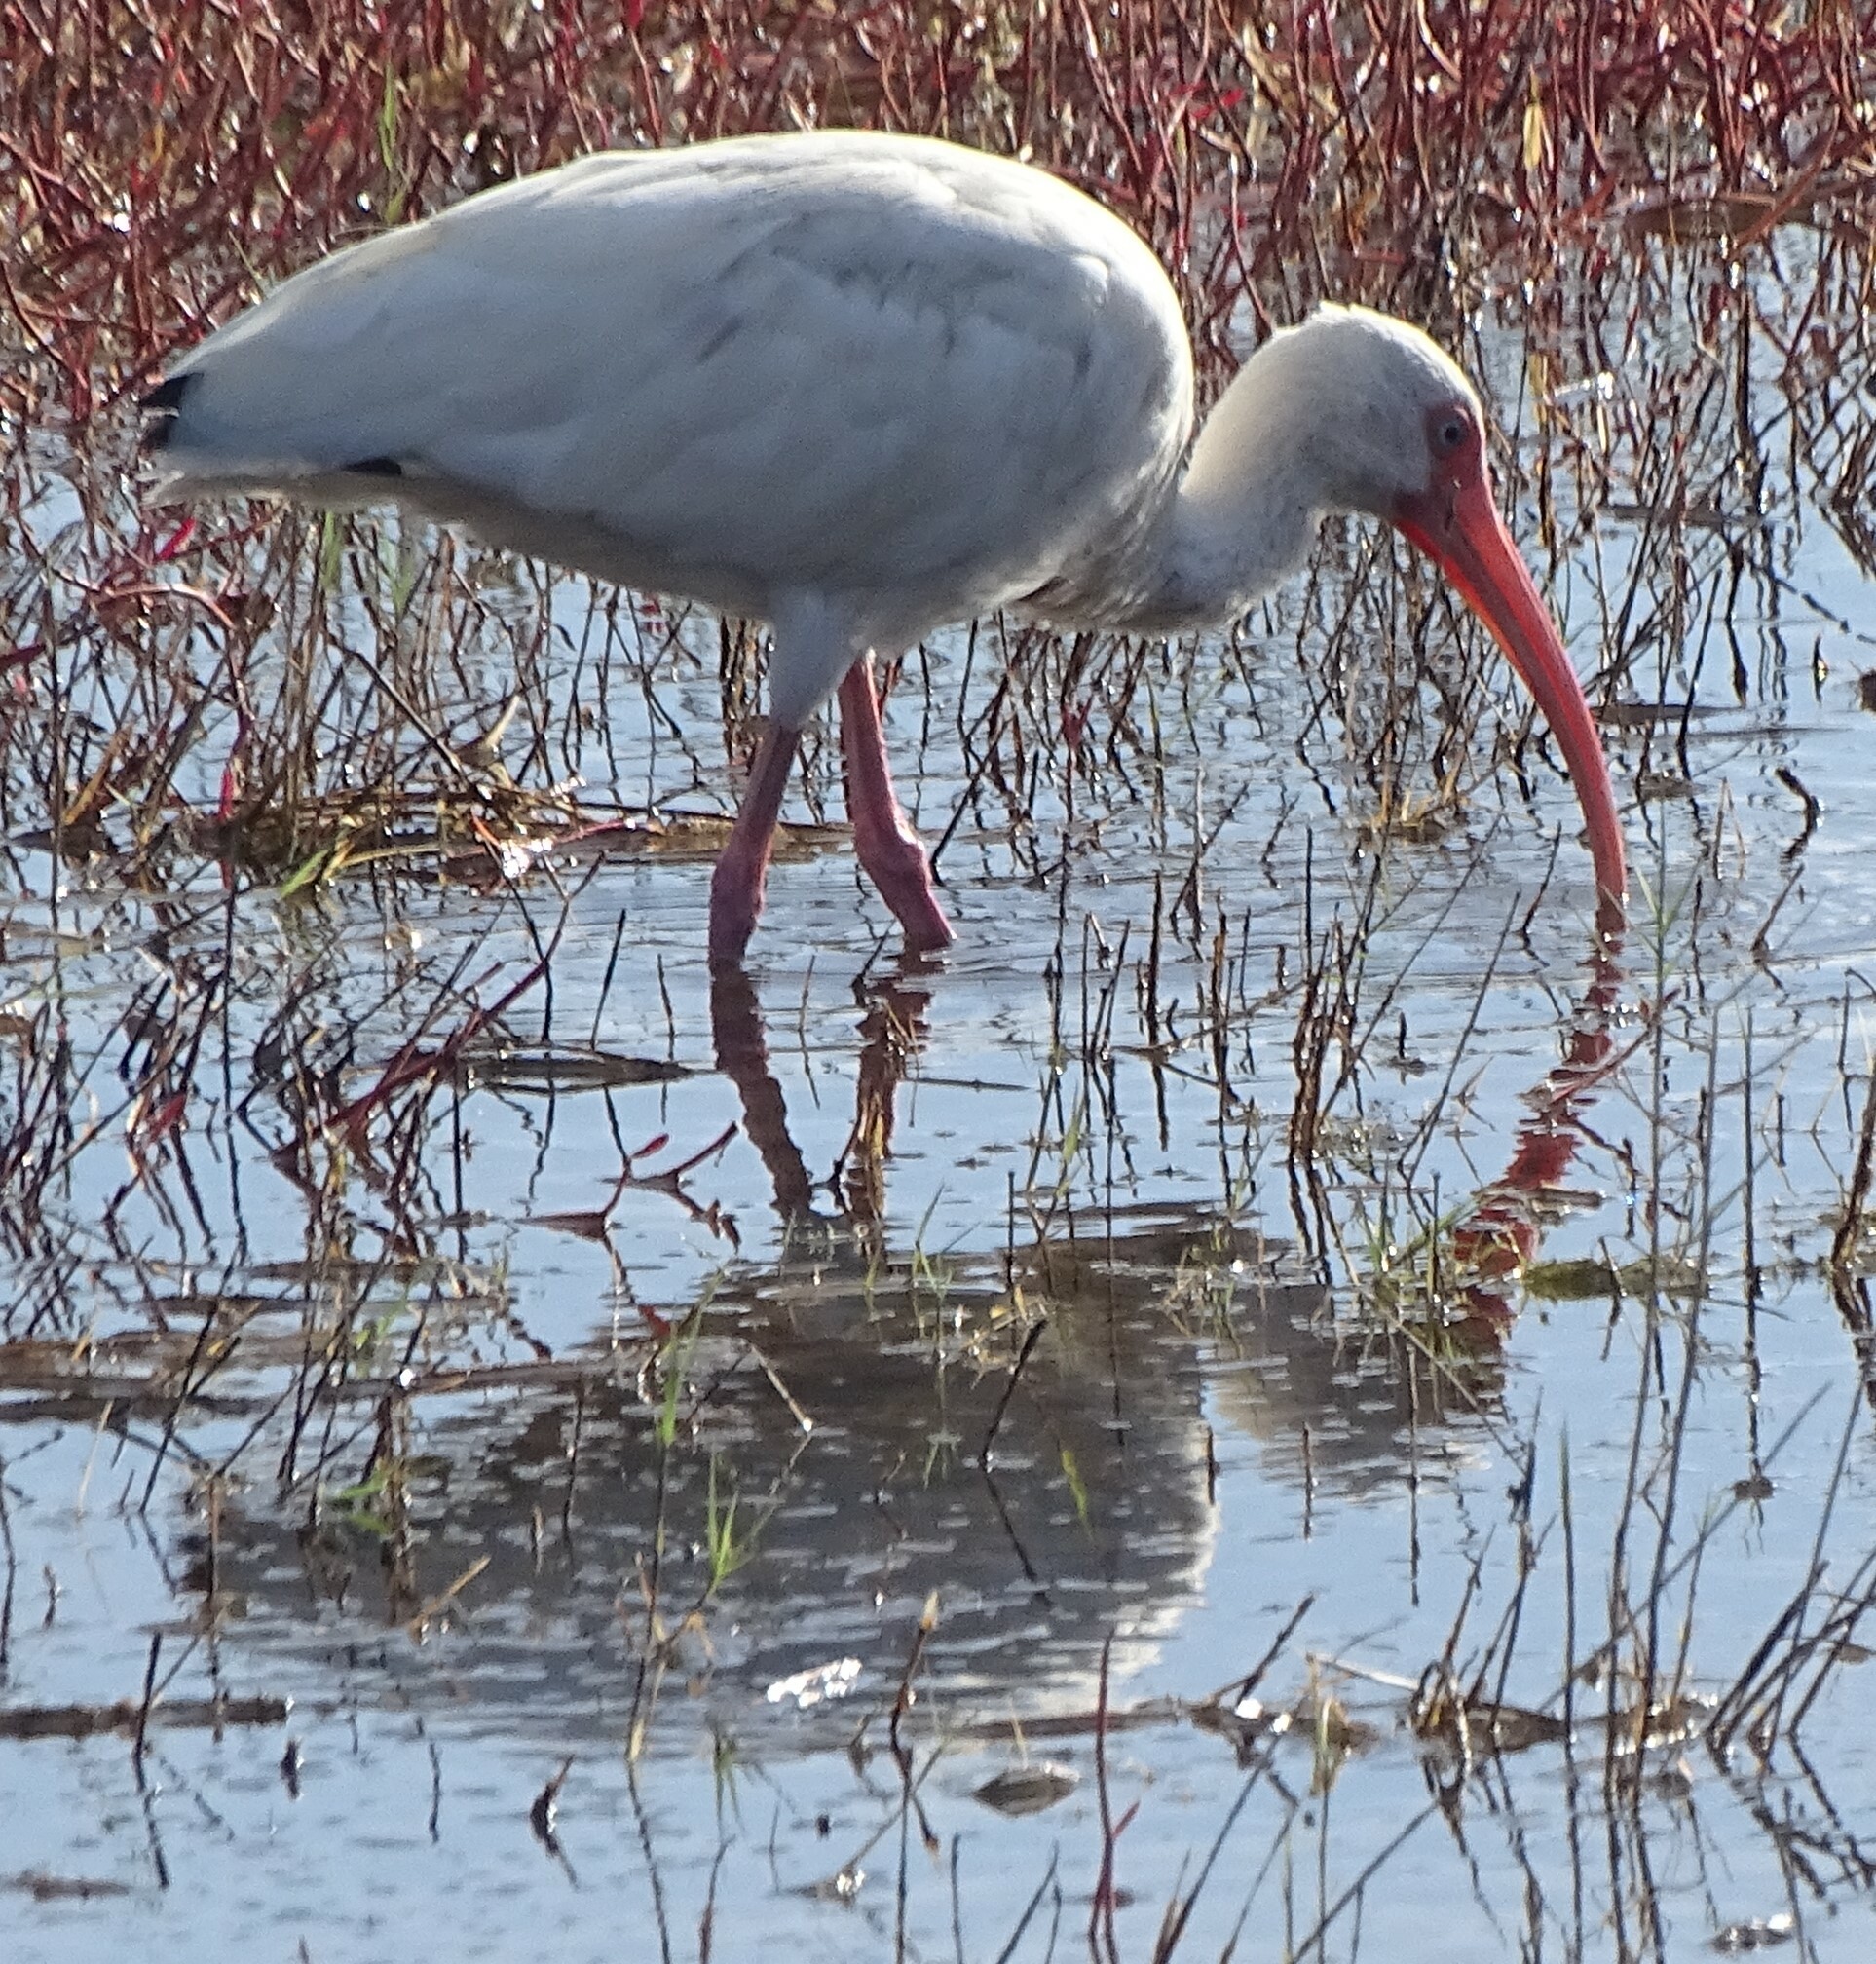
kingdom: Animalia
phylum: Chordata
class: Aves
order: Pelecaniformes
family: Threskiornithidae
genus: Eudocimus
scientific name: Eudocimus albus
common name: White ibis
